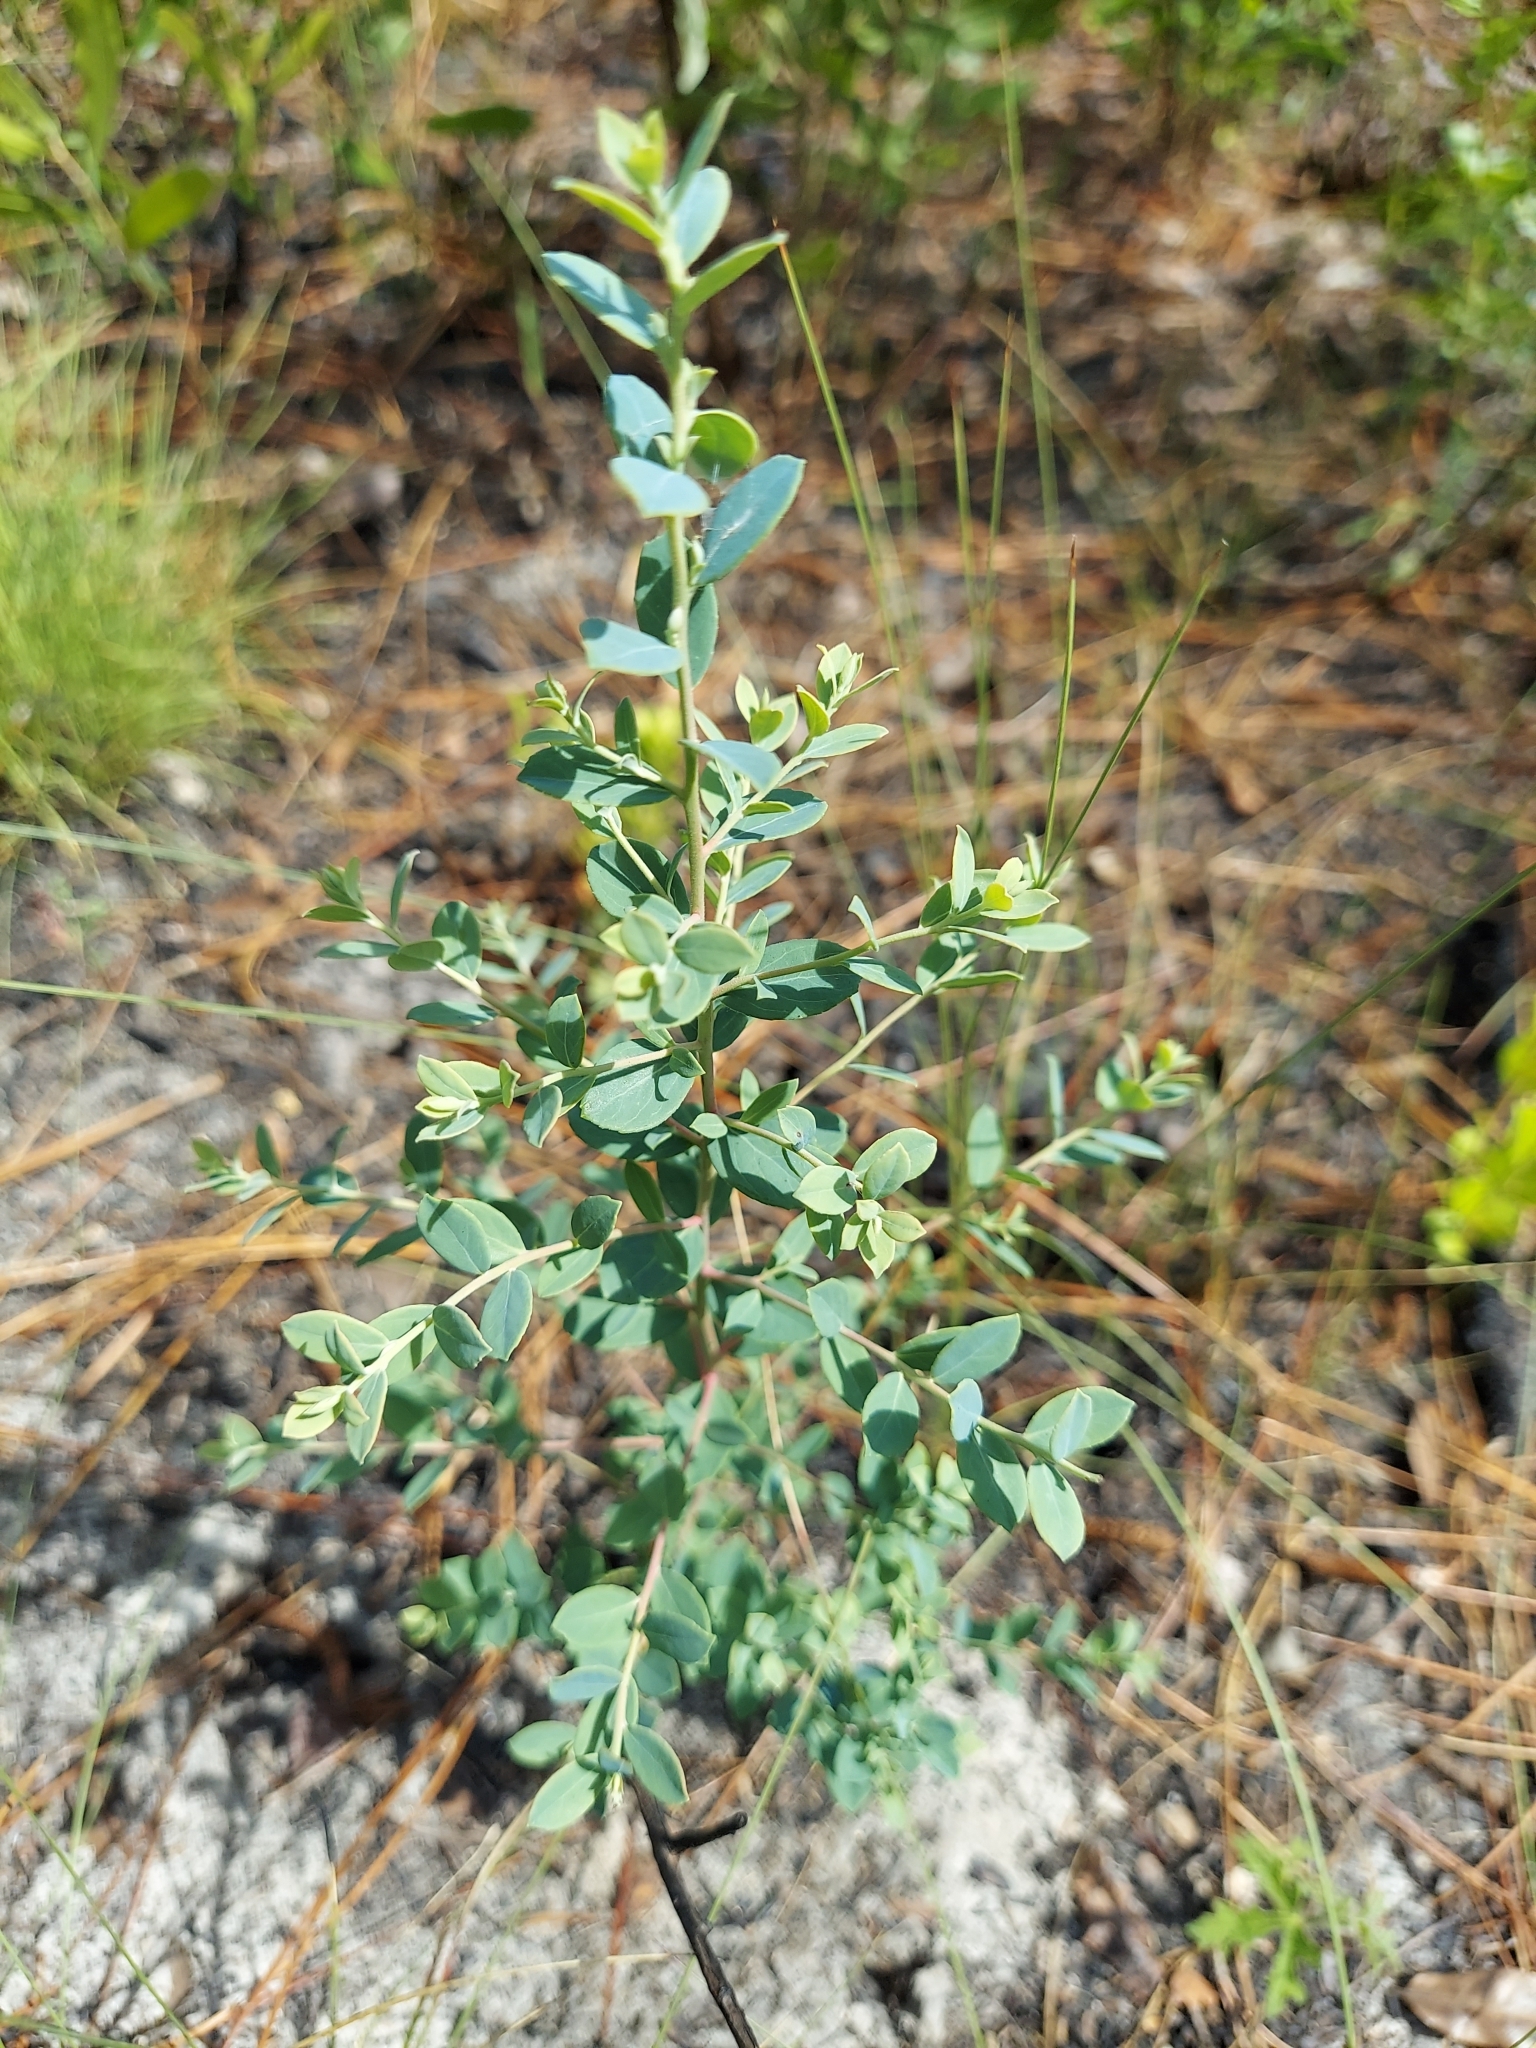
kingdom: Plantae
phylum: Tracheophyta
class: Magnoliopsida
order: Ericales
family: Ericaceae
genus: Vaccinium
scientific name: Vaccinium darrowii
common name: Darrow's blueberry
